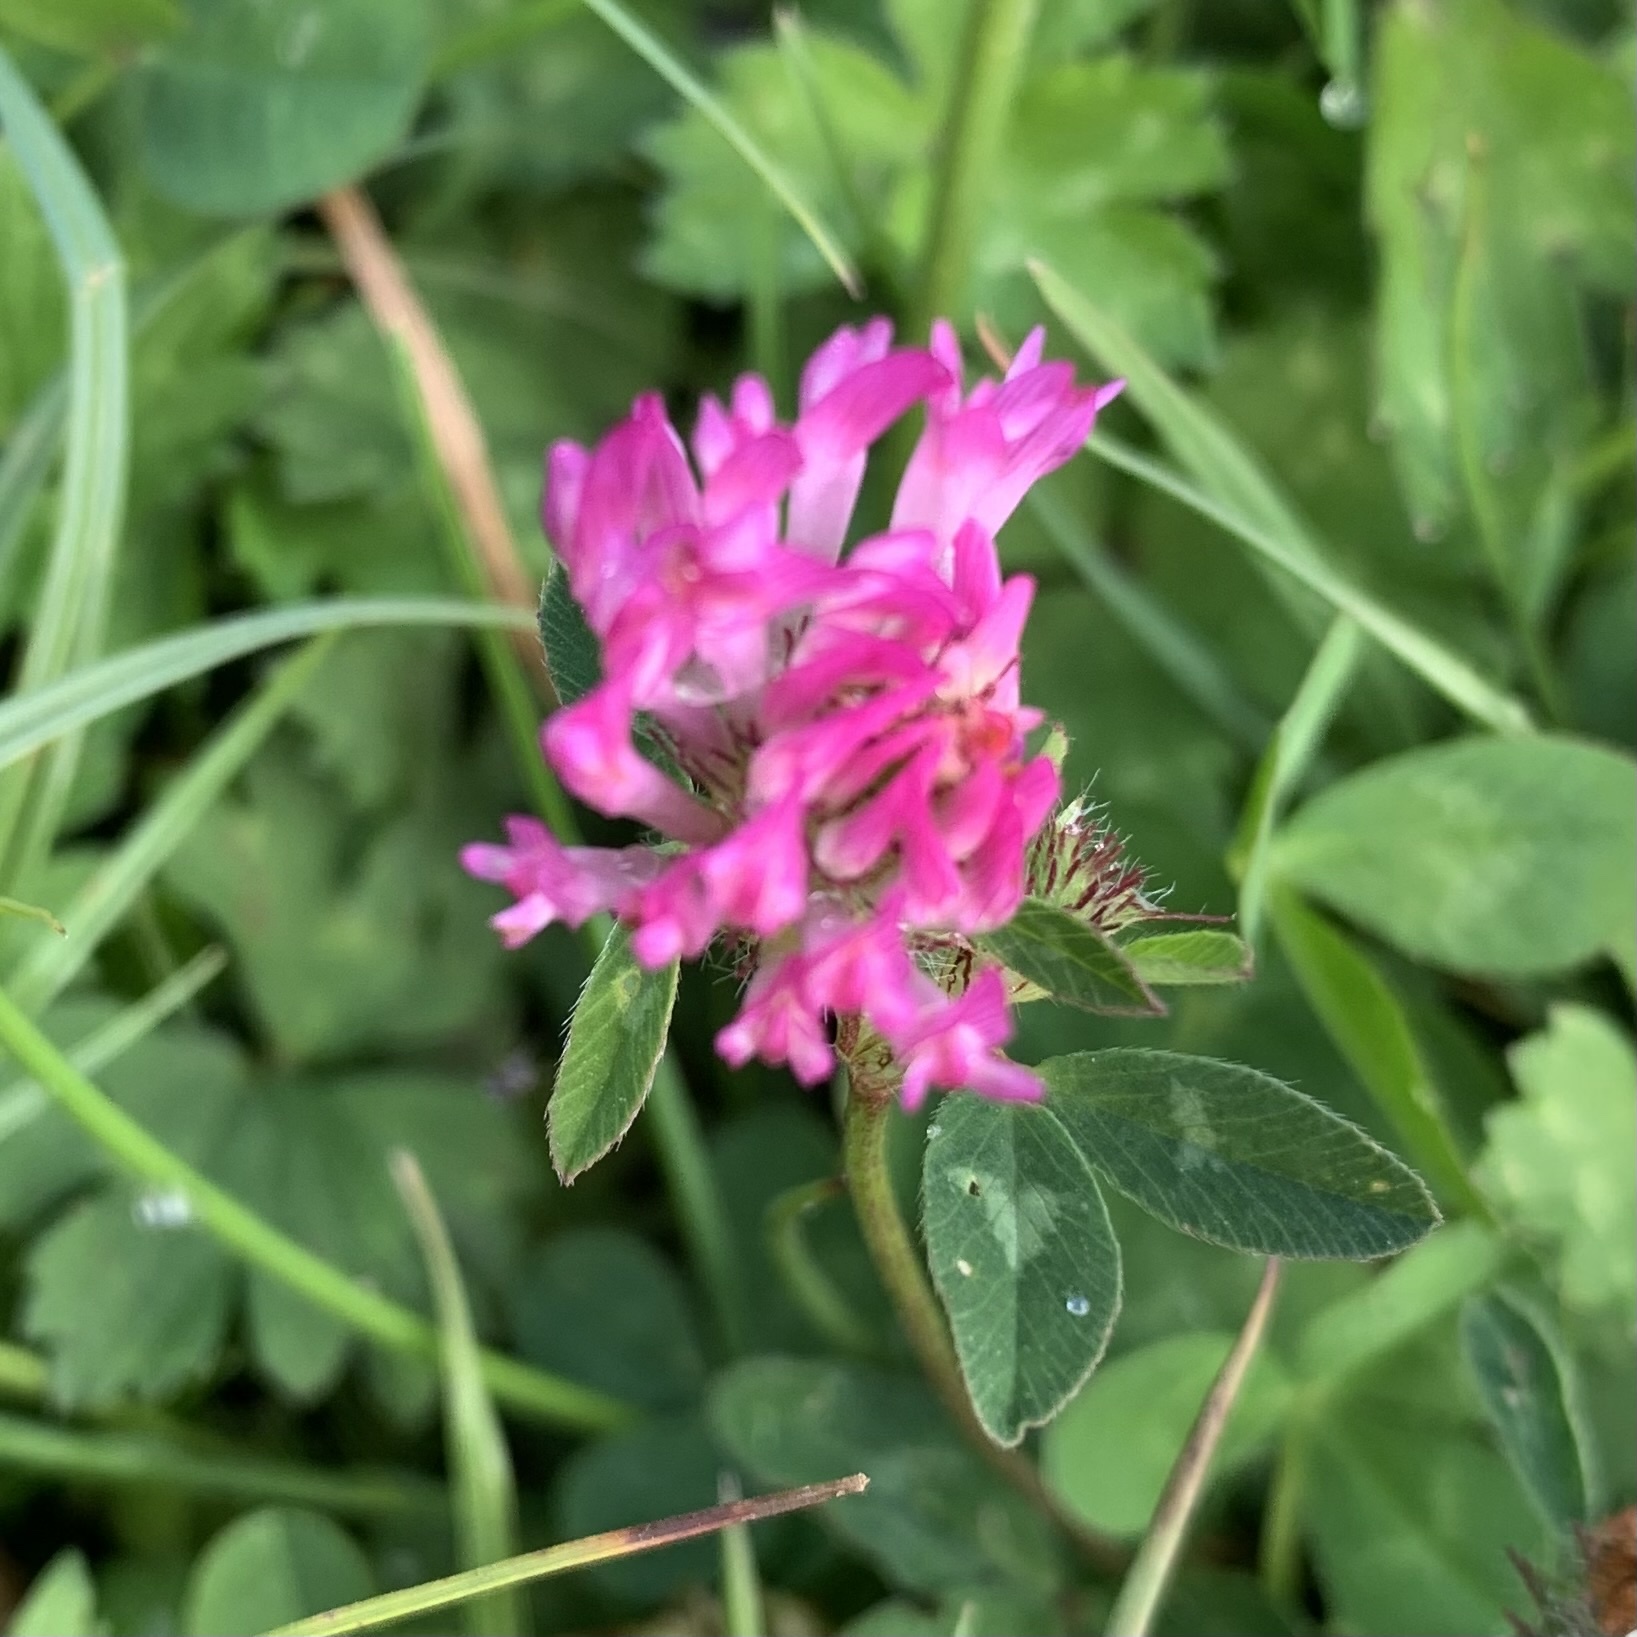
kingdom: Plantae
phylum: Tracheophyta
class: Magnoliopsida
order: Fabales
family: Fabaceae
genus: Trifolium
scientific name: Trifolium pratense
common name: Red clover
